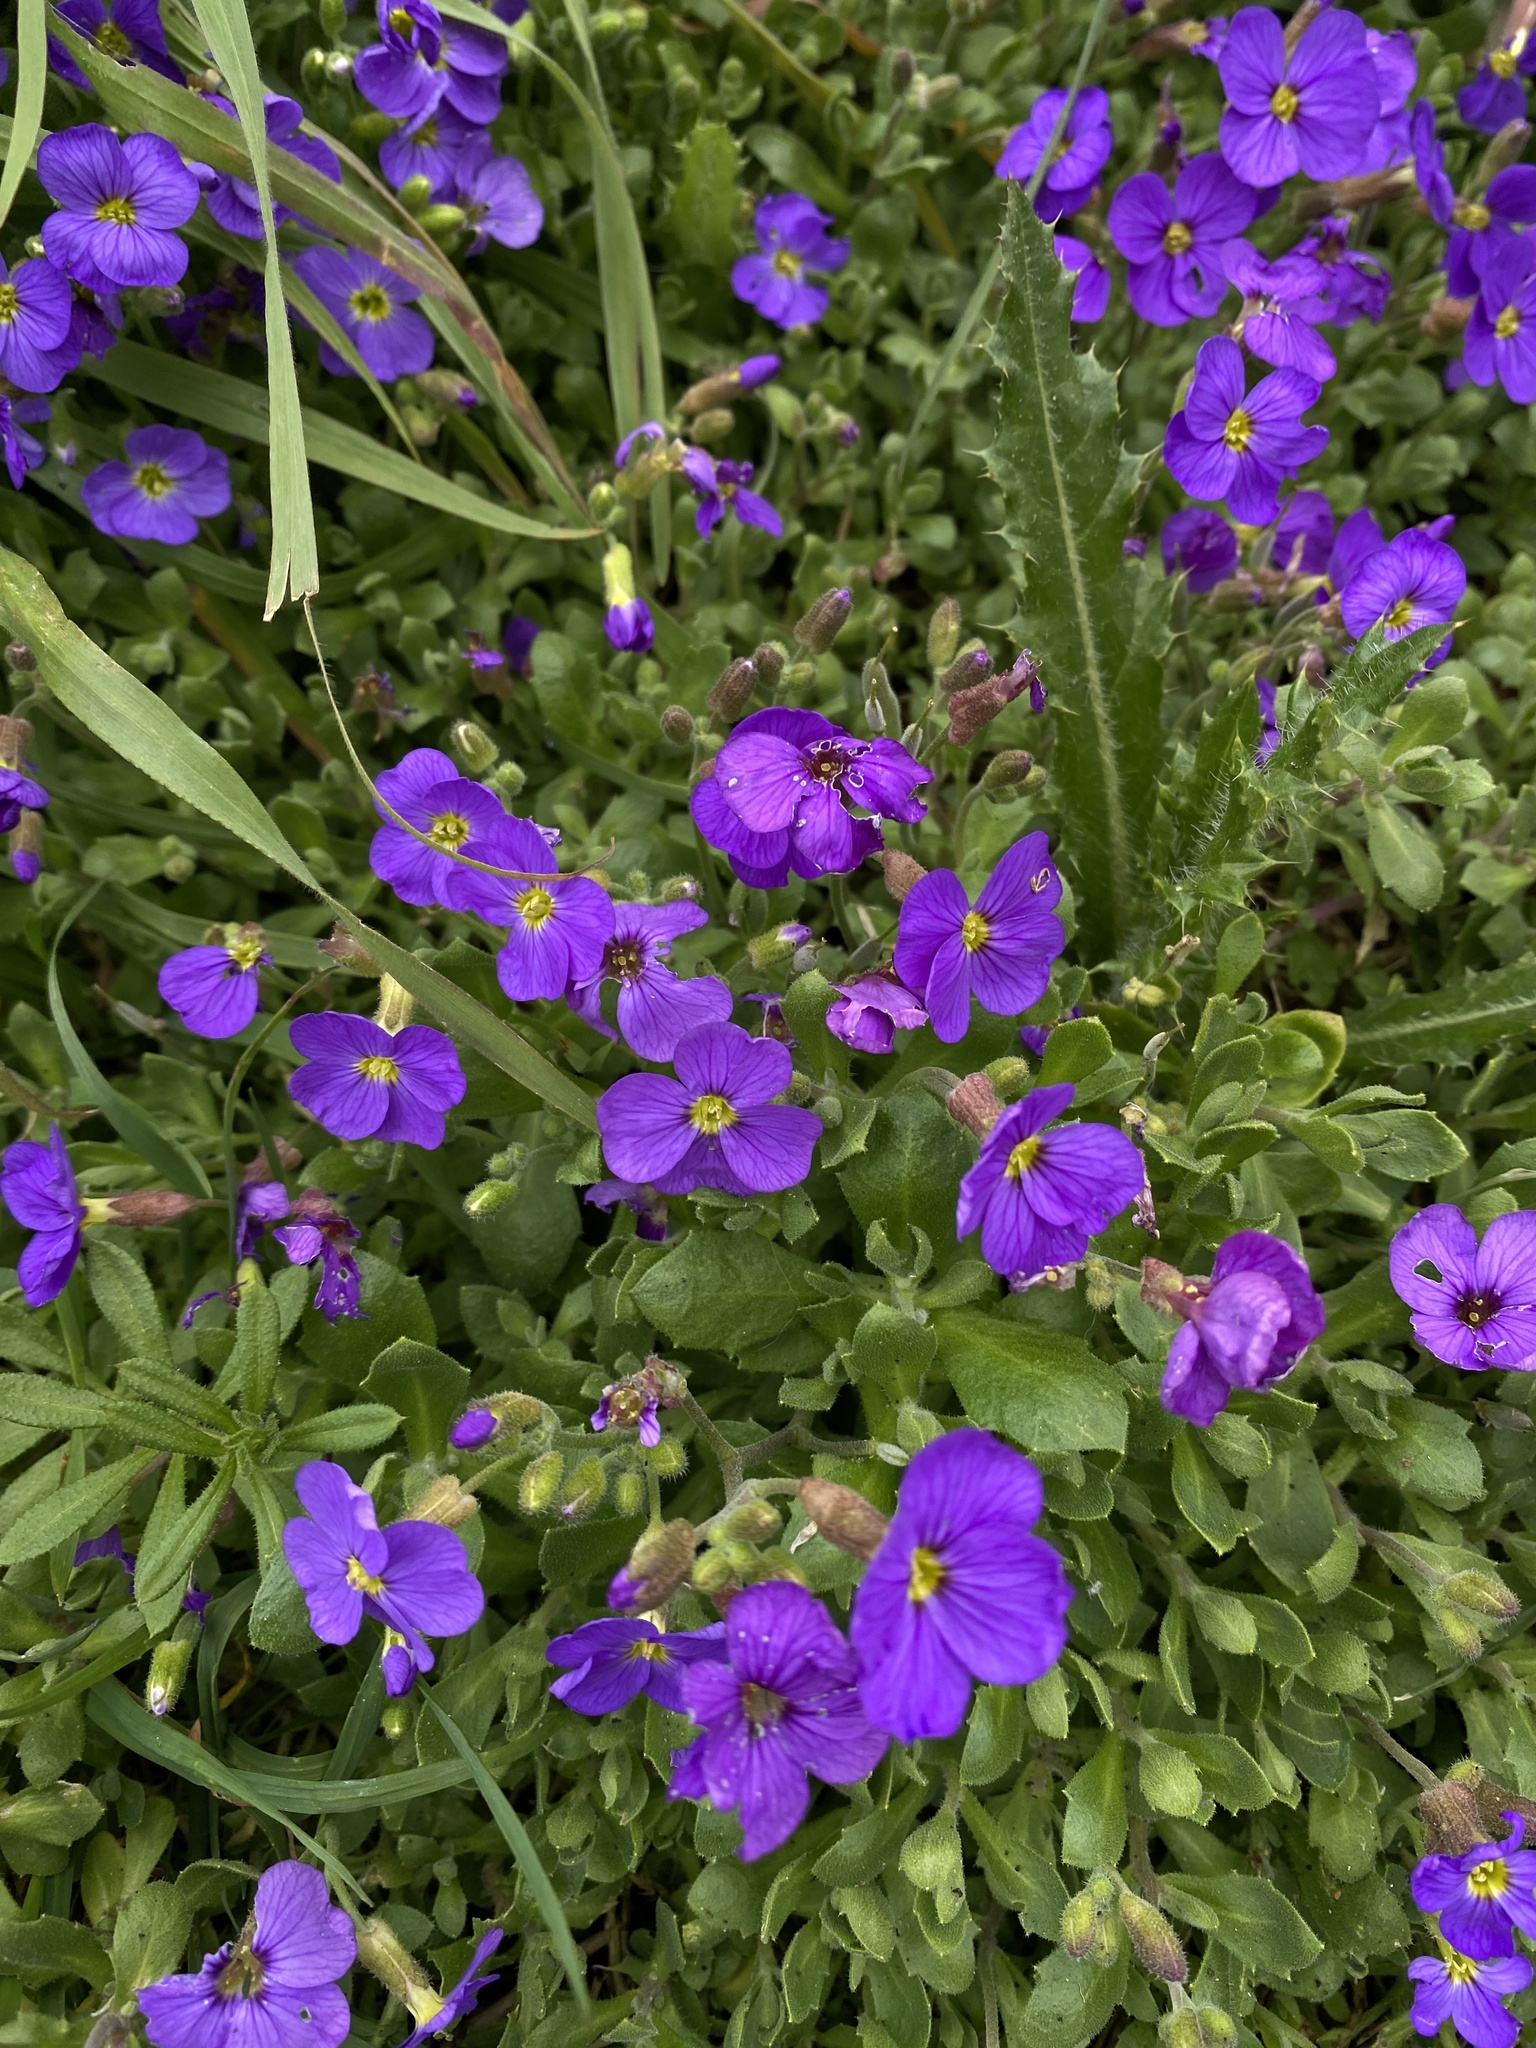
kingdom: Plantae
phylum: Tracheophyta
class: Magnoliopsida
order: Brassicales
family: Brassicaceae
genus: Aubrieta
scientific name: Aubrieta deltoidea
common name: Aubretia
